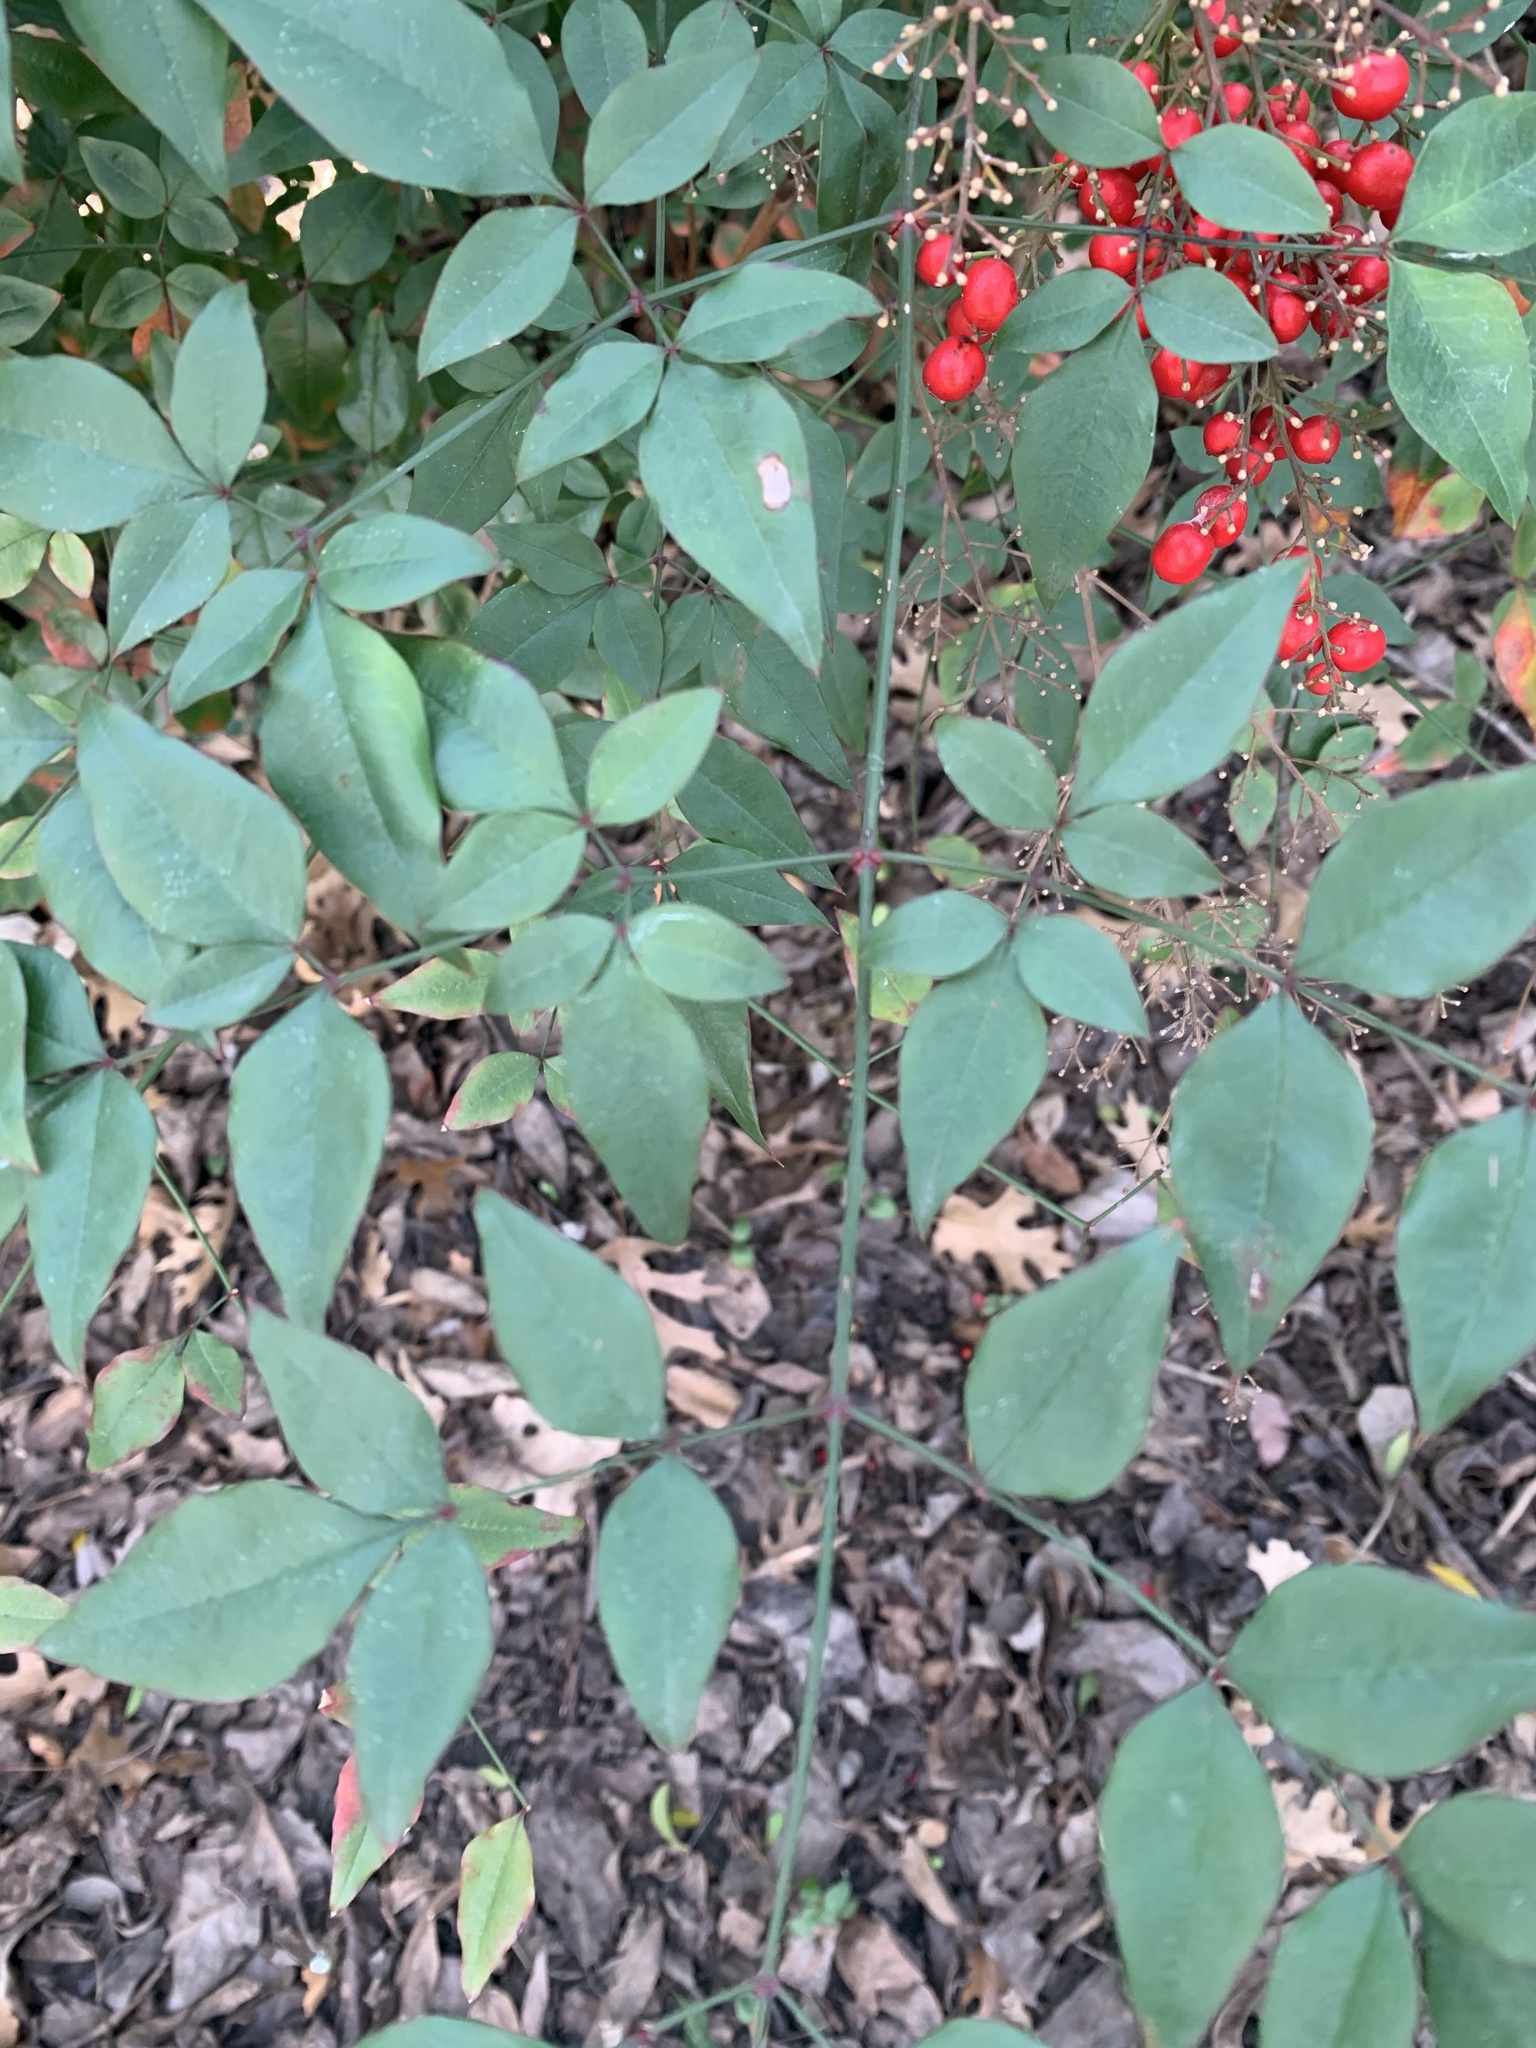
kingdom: Plantae
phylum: Tracheophyta
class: Magnoliopsida
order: Ranunculales
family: Berberidaceae
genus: Nandina
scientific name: Nandina domestica
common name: Sacred bamboo
